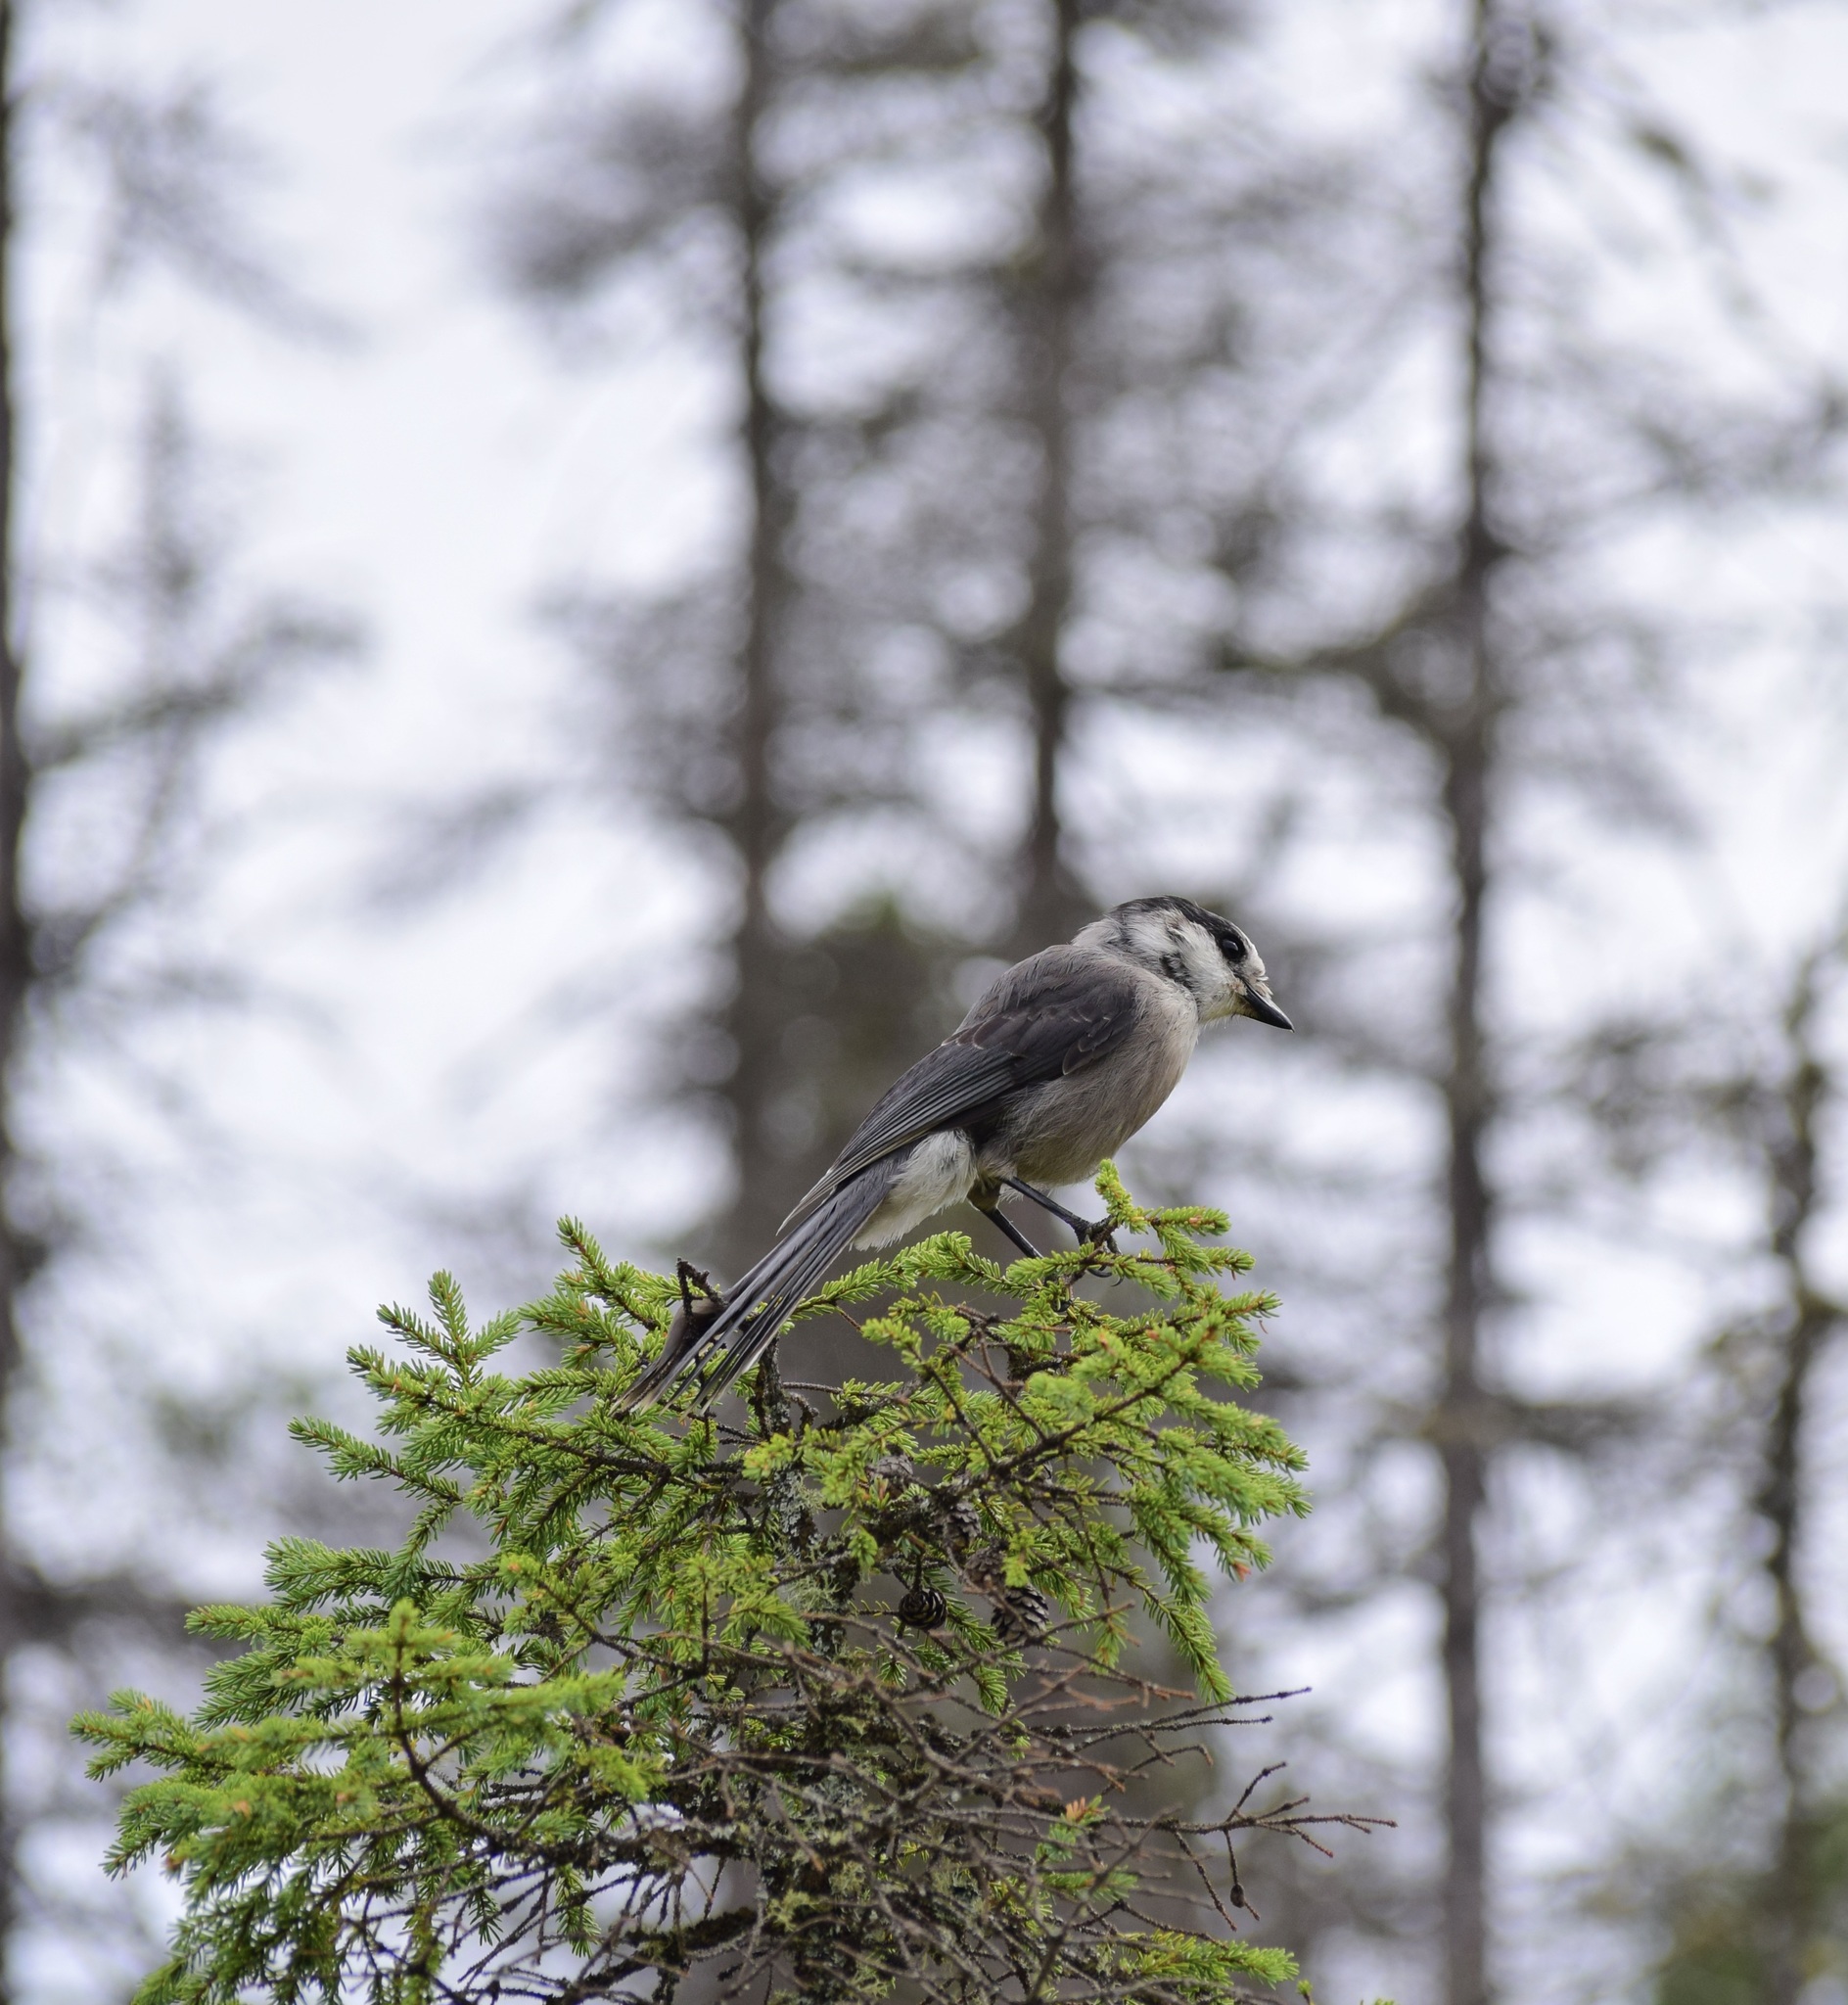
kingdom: Animalia
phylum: Chordata
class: Aves
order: Passeriformes
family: Corvidae
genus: Perisoreus
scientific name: Perisoreus canadensis
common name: Gray jay
